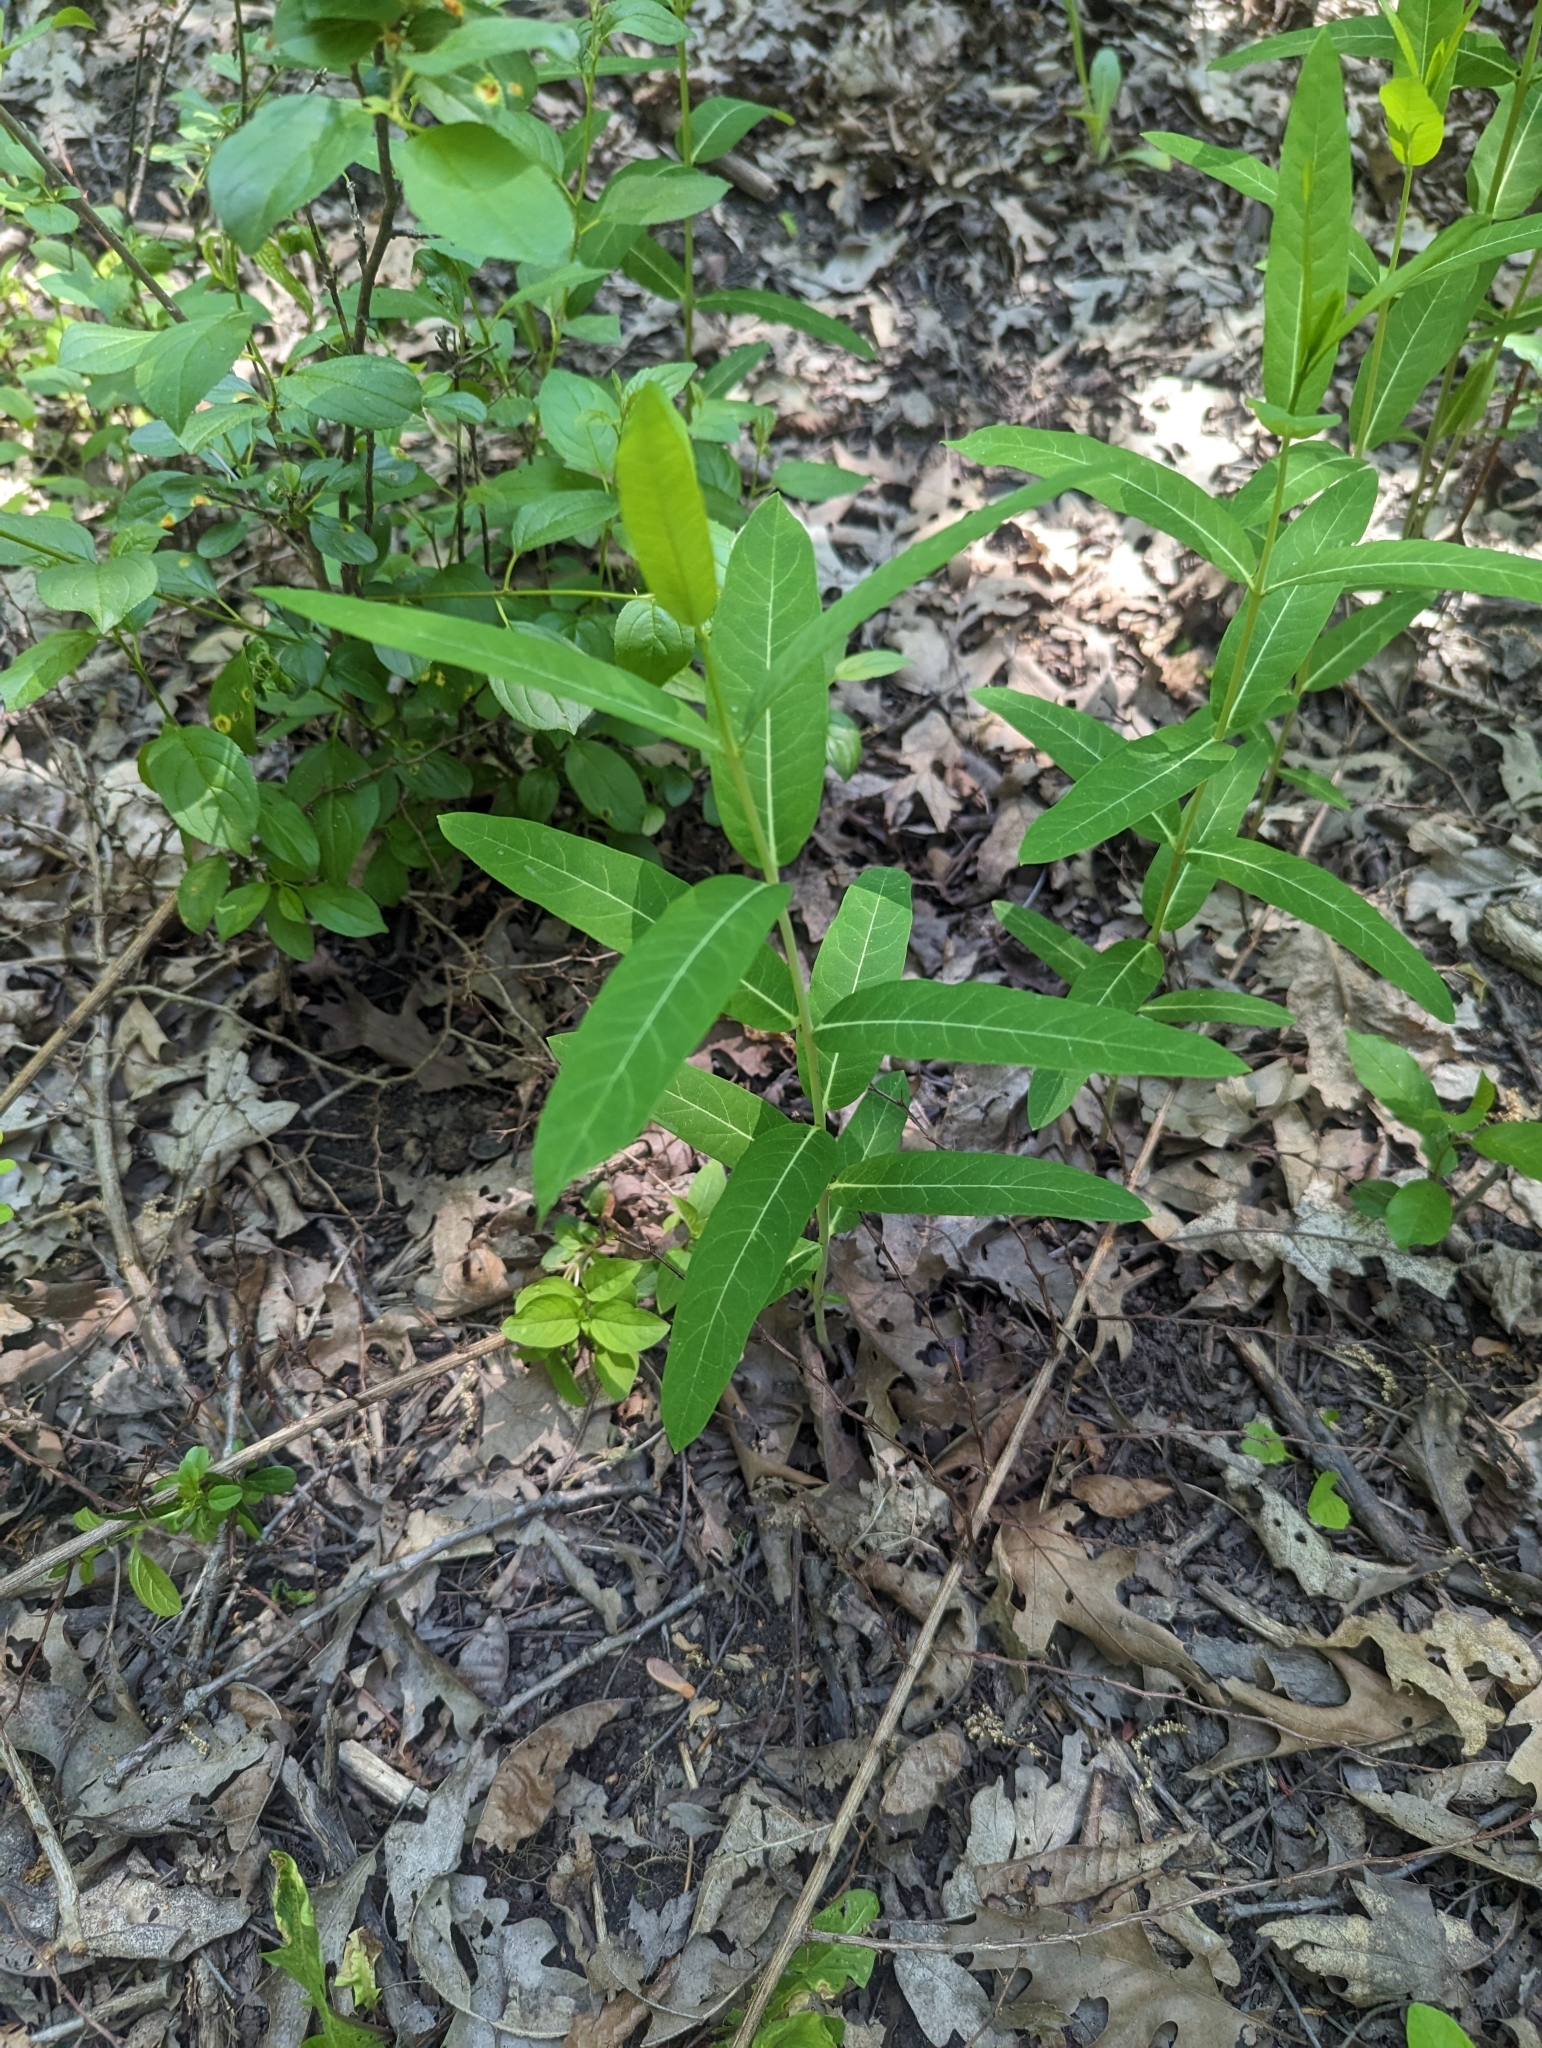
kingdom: Plantae
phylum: Tracheophyta
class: Magnoliopsida
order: Gentianales
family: Apocynaceae
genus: Apocynum
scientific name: Apocynum cannabinum
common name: Hemp dogbane
